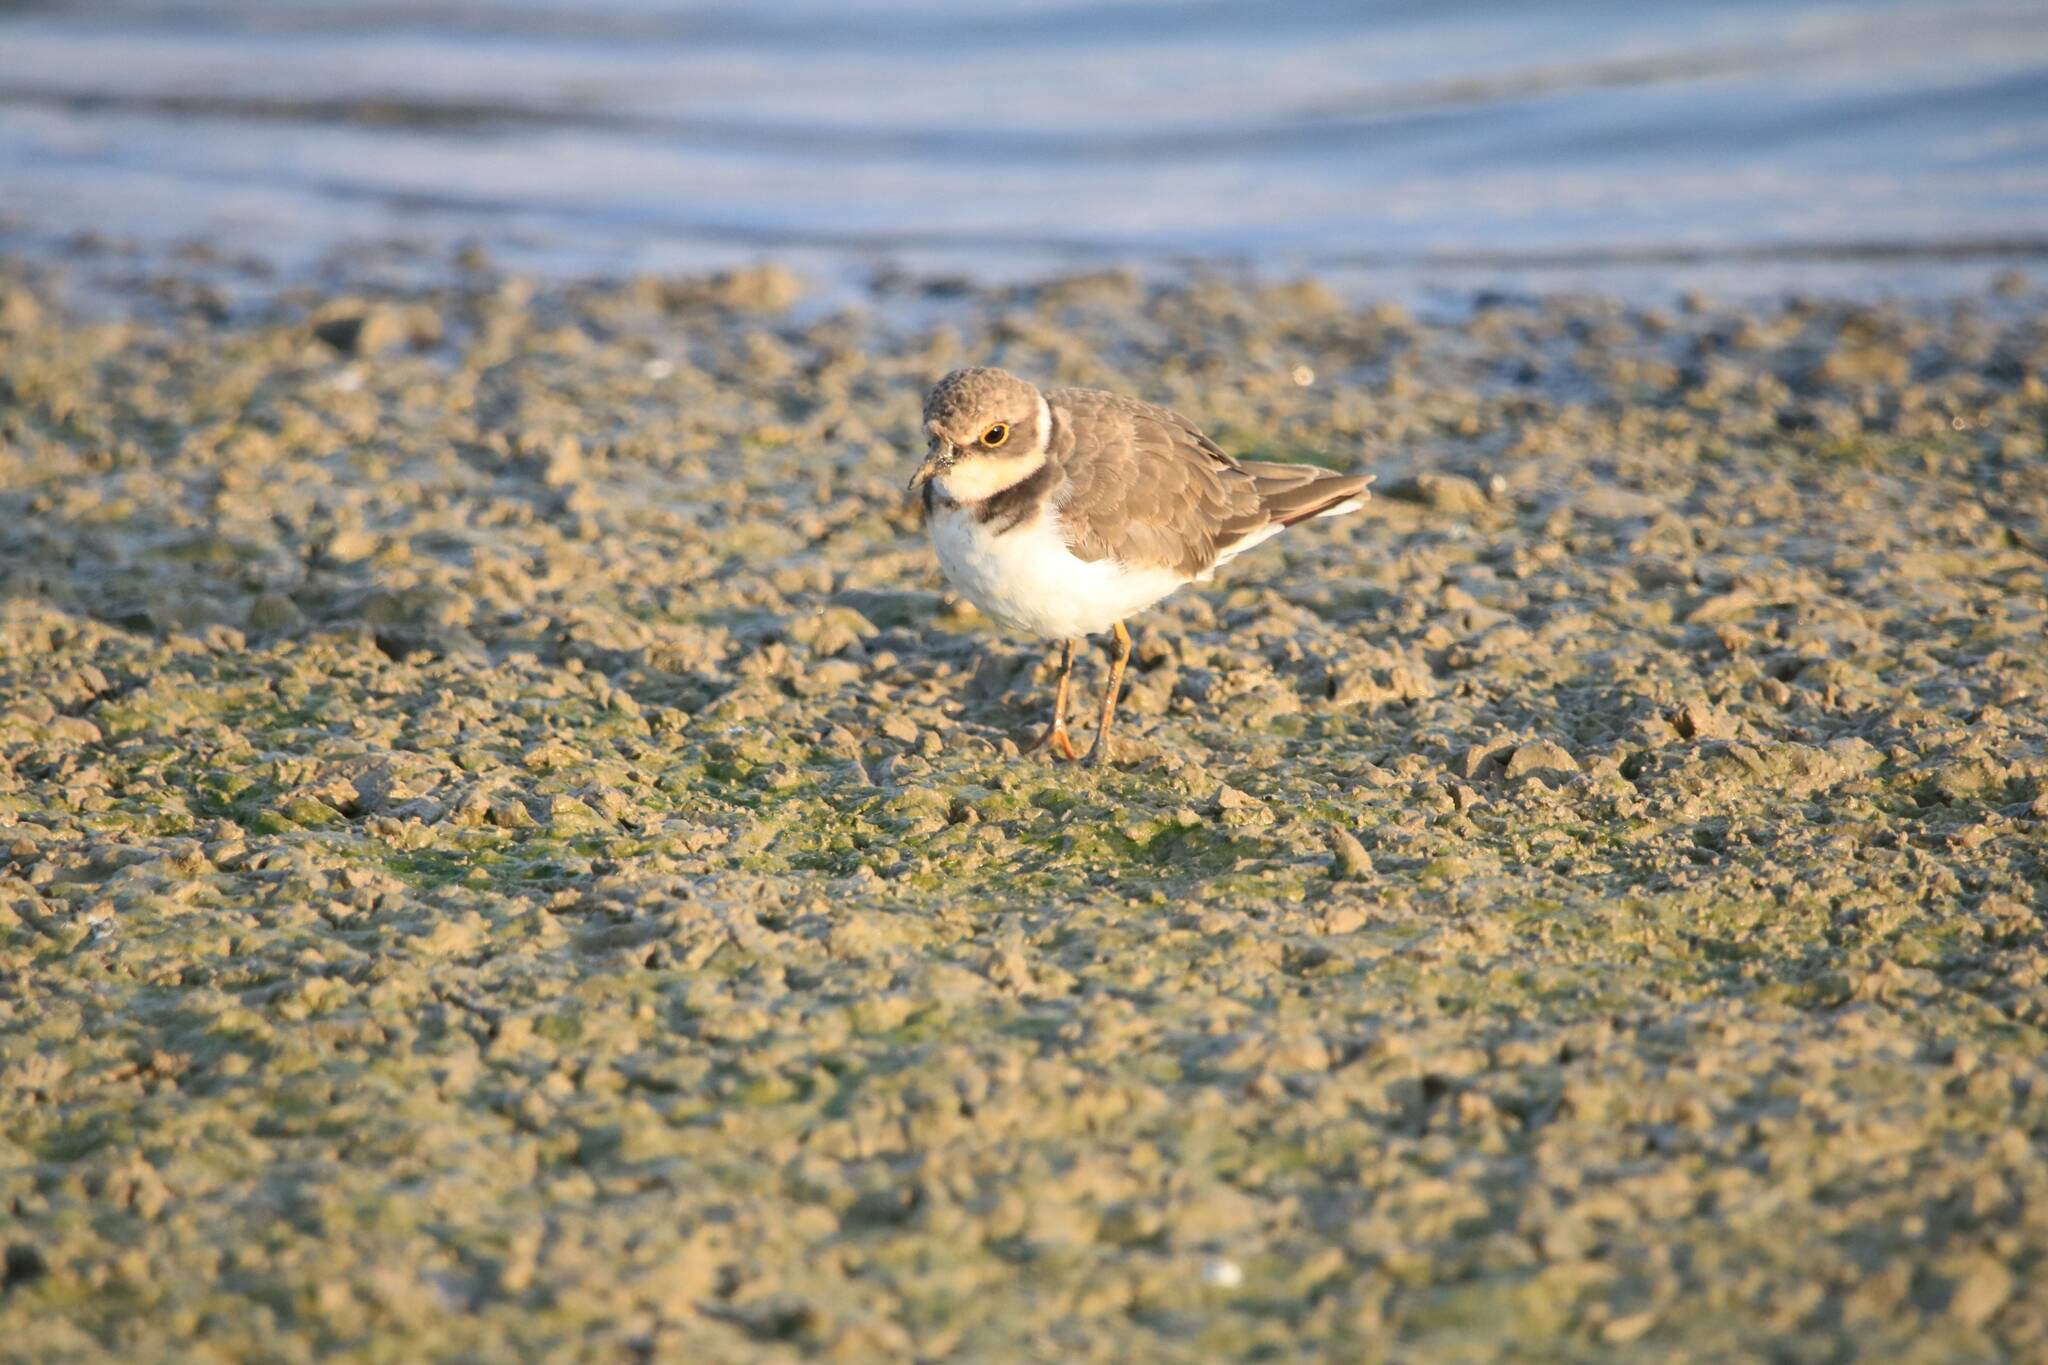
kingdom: Animalia
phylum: Chordata
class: Aves
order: Charadriiformes
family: Charadriidae
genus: Charadrius
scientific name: Charadrius dubius
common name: Little ringed plover
